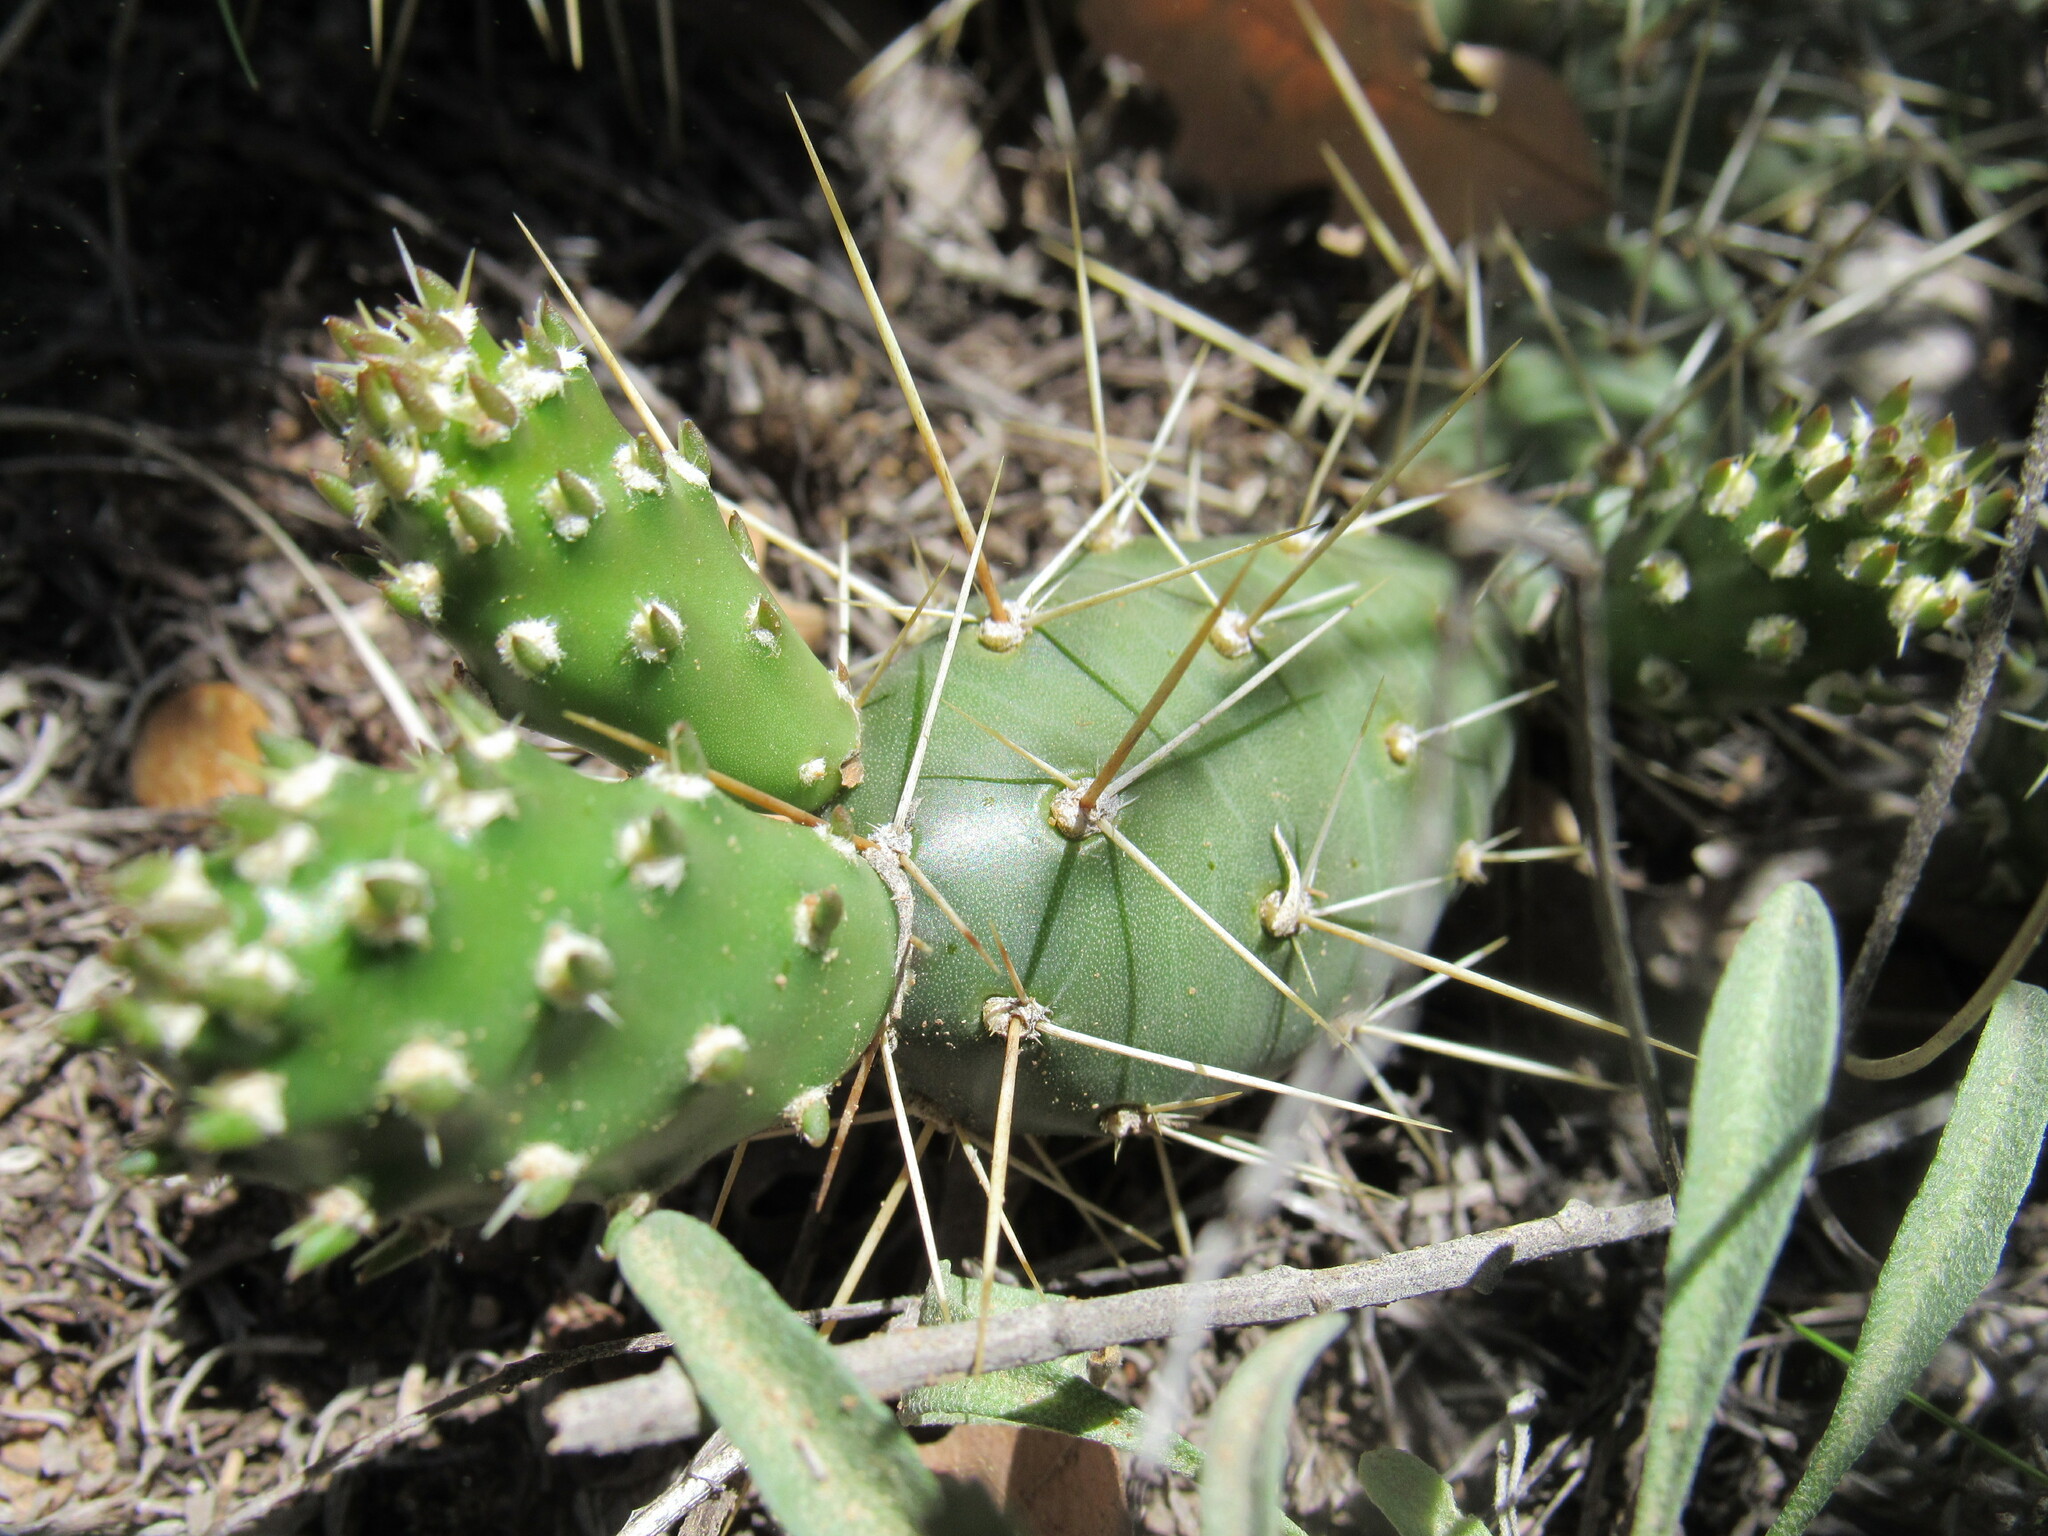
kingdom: Plantae
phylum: Tracheophyta
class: Magnoliopsida
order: Caryophyllales
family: Cactaceae
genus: Opuntia
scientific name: Opuntia fragilis
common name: Brittle cactus
